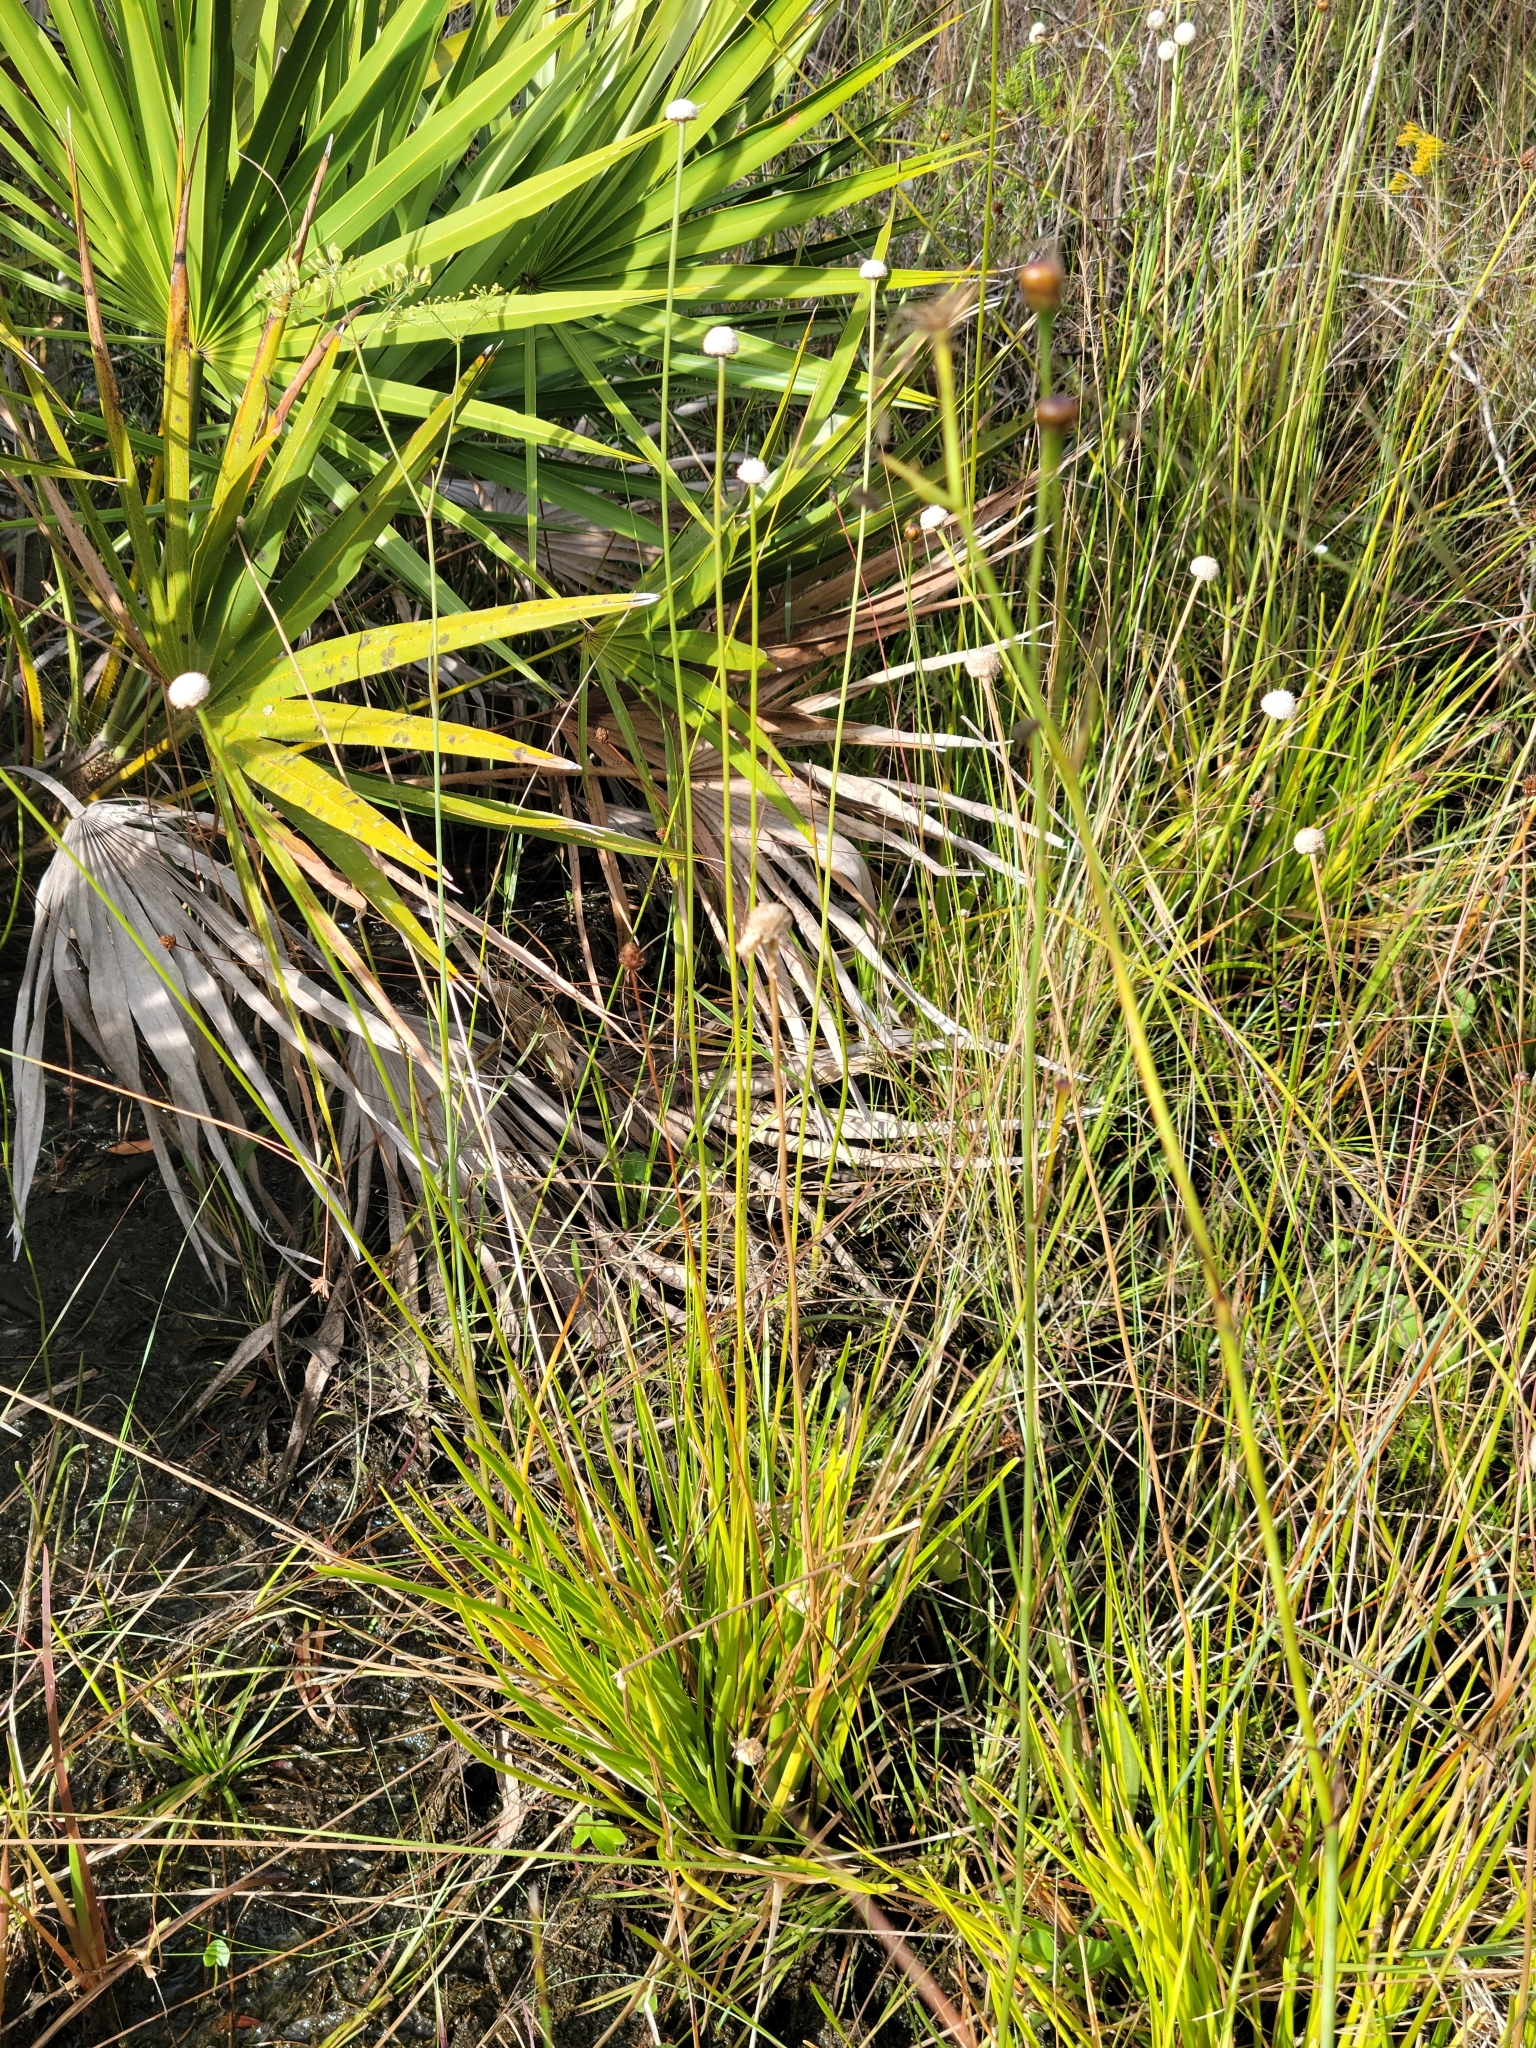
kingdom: Plantae
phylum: Tracheophyta
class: Liliopsida
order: Poales
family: Eriocaulaceae
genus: Eriocaulon
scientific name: Eriocaulon decangulare
